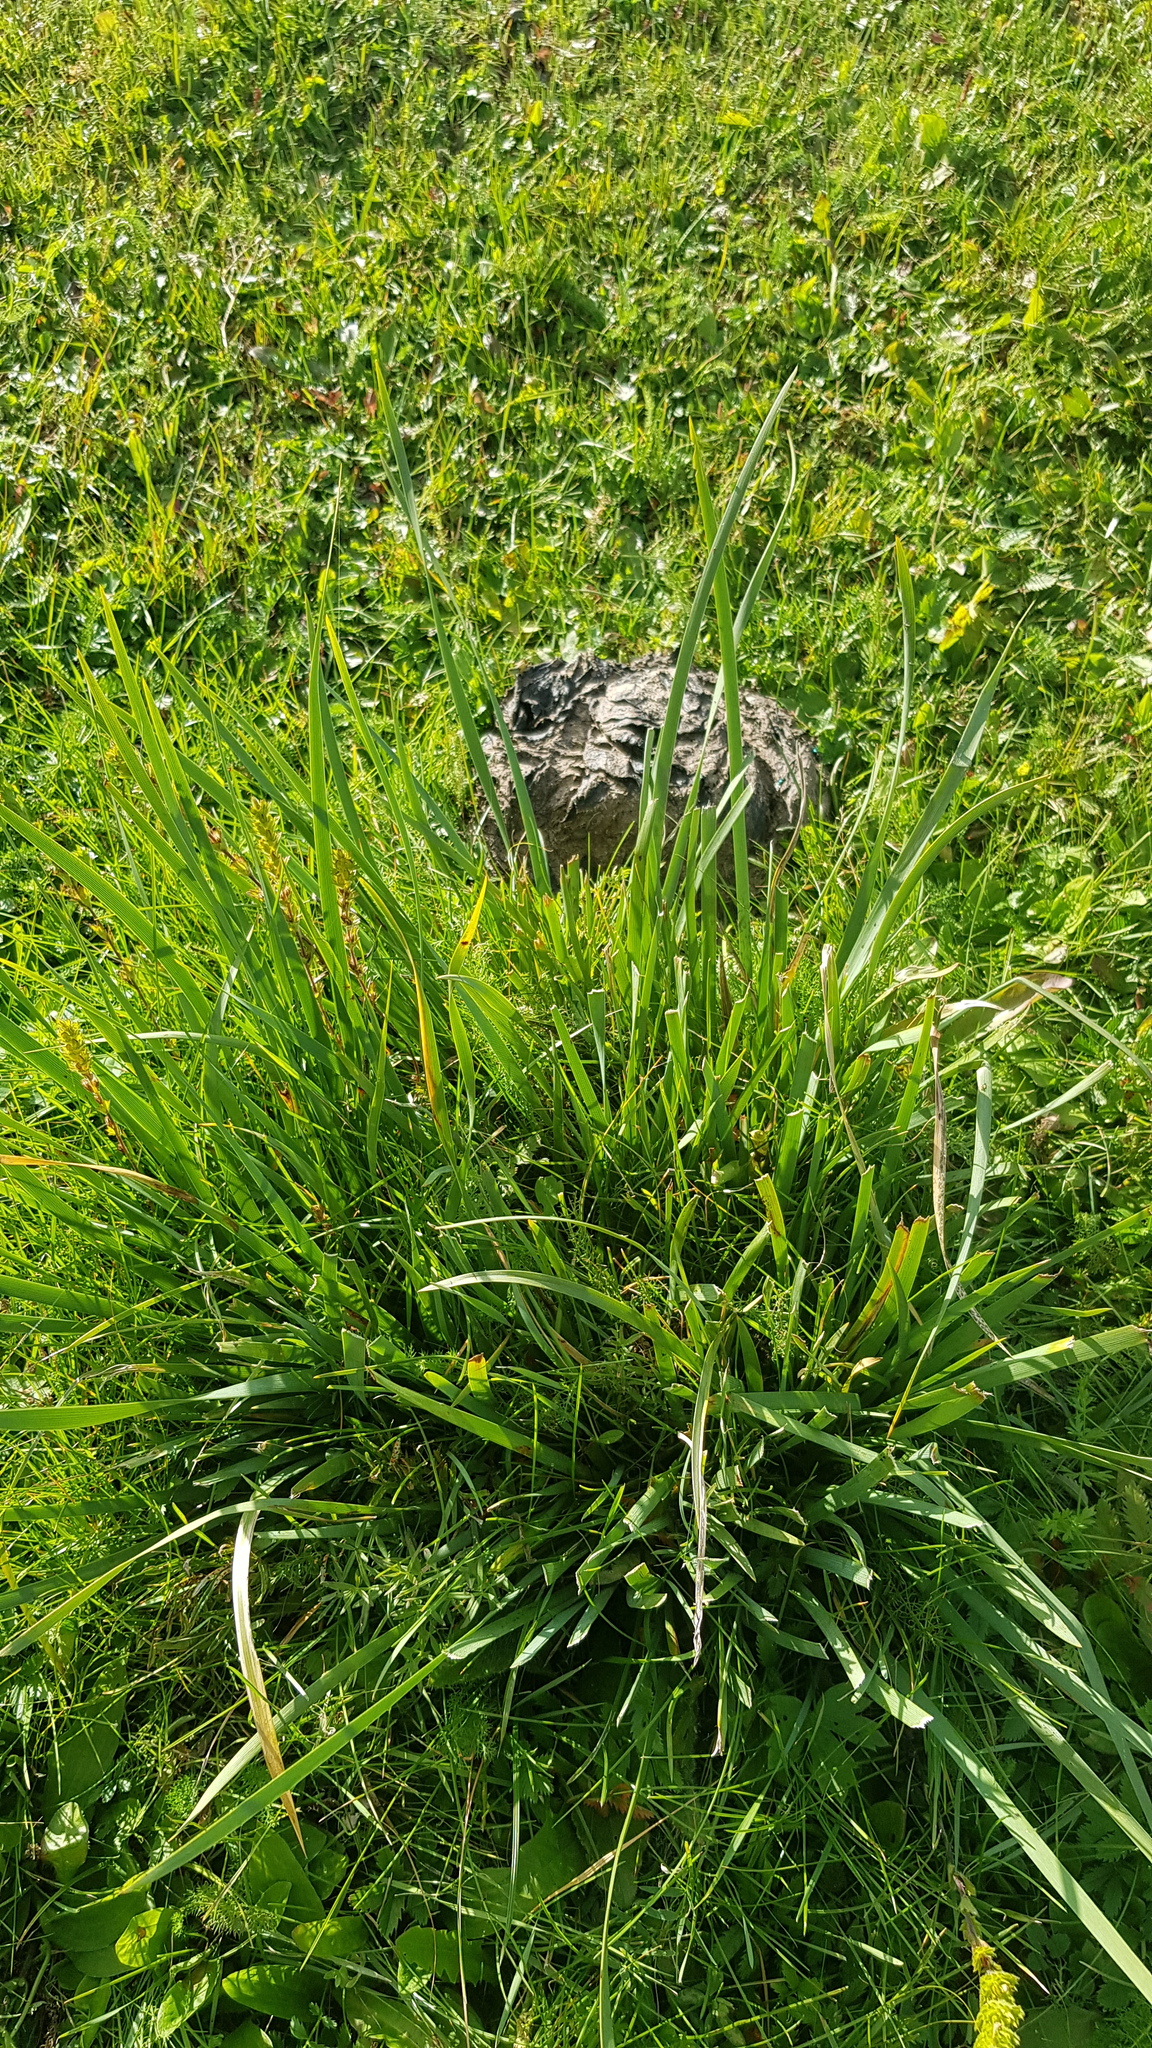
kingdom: Plantae
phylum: Tracheophyta
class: Liliopsida
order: Asparagales
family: Iridaceae
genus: Iris
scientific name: Iris lactea
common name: White-flower chinese iris
